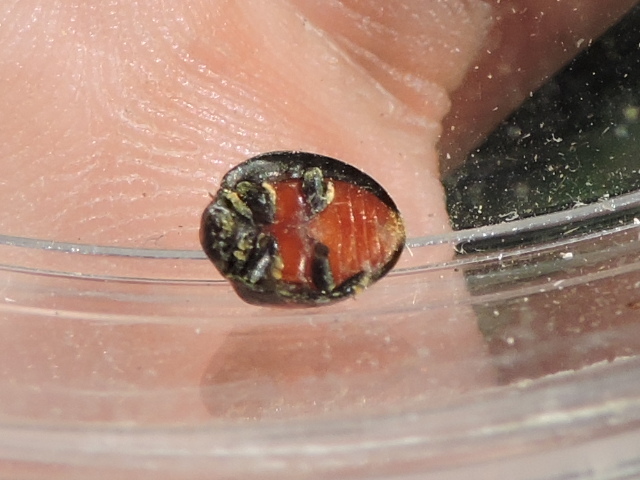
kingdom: Animalia
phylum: Arthropoda
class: Insecta
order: Coleoptera
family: Coccinellidae
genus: Chilocorus
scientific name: Chilocorus cacti
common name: Cactus lady beetle
